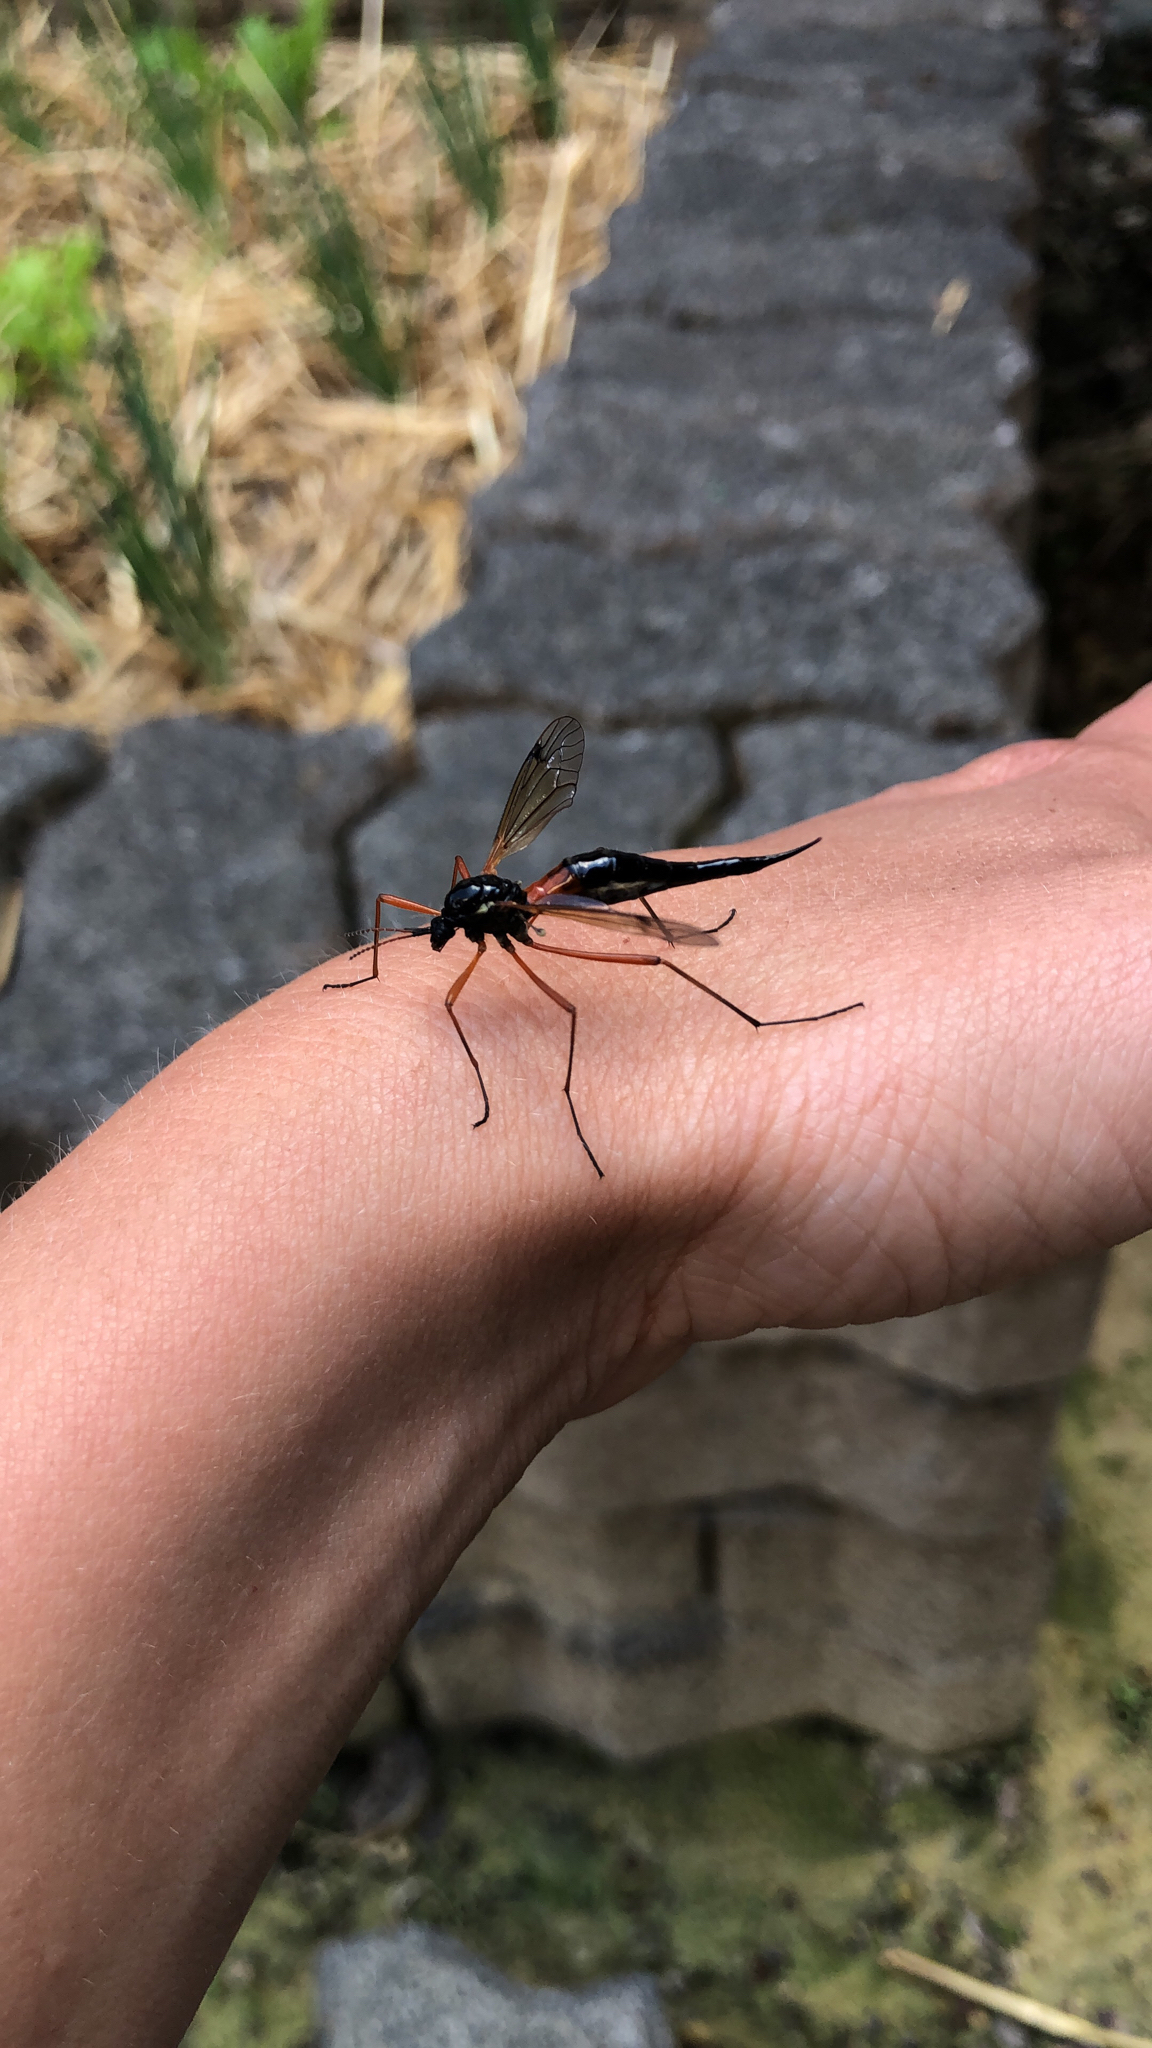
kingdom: Animalia
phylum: Arthropoda
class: Insecta
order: Diptera
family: Tipulidae
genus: Tanyptera
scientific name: Tanyptera atrata
